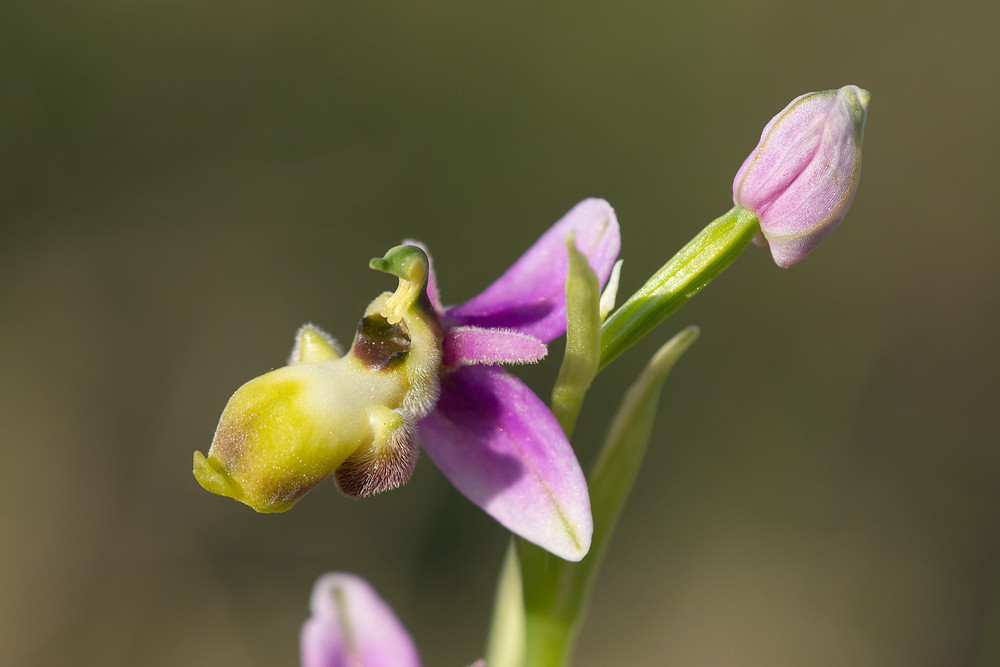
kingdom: Plantae
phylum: Tracheophyta
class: Liliopsida
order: Asparagales
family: Orchidaceae
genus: Ophrys
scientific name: Ophrys scolopax
